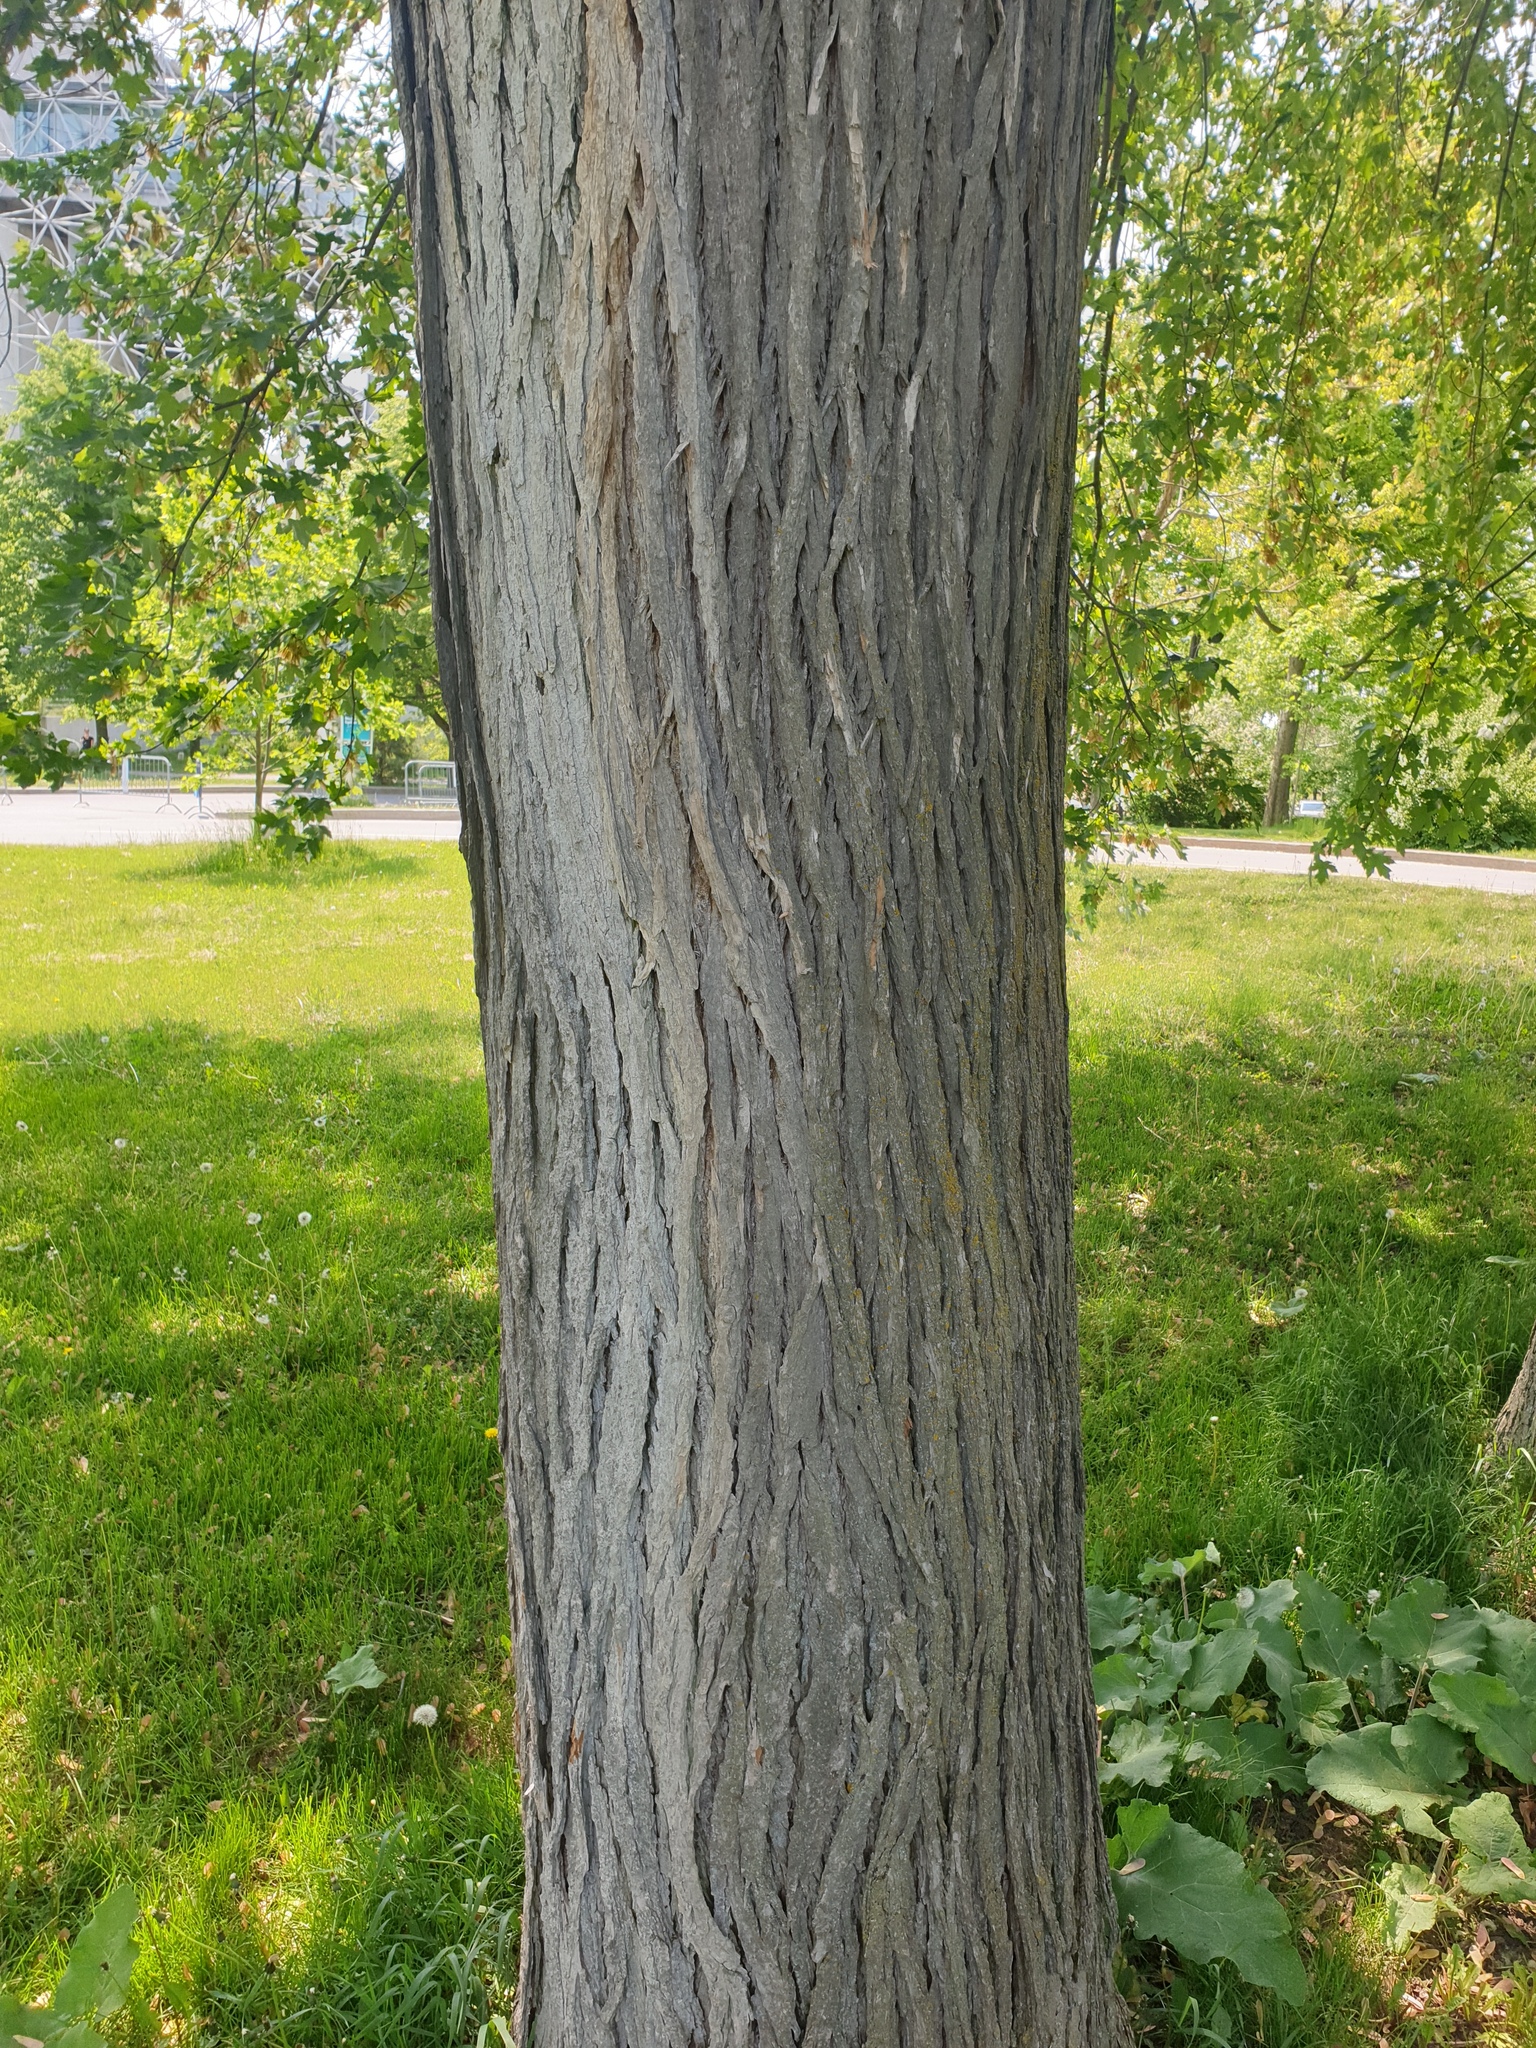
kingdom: Plantae
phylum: Tracheophyta
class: Magnoliopsida
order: Rosales
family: Ulmaceae
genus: Ulmus
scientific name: Ulmus rubra
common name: Slippery elm
